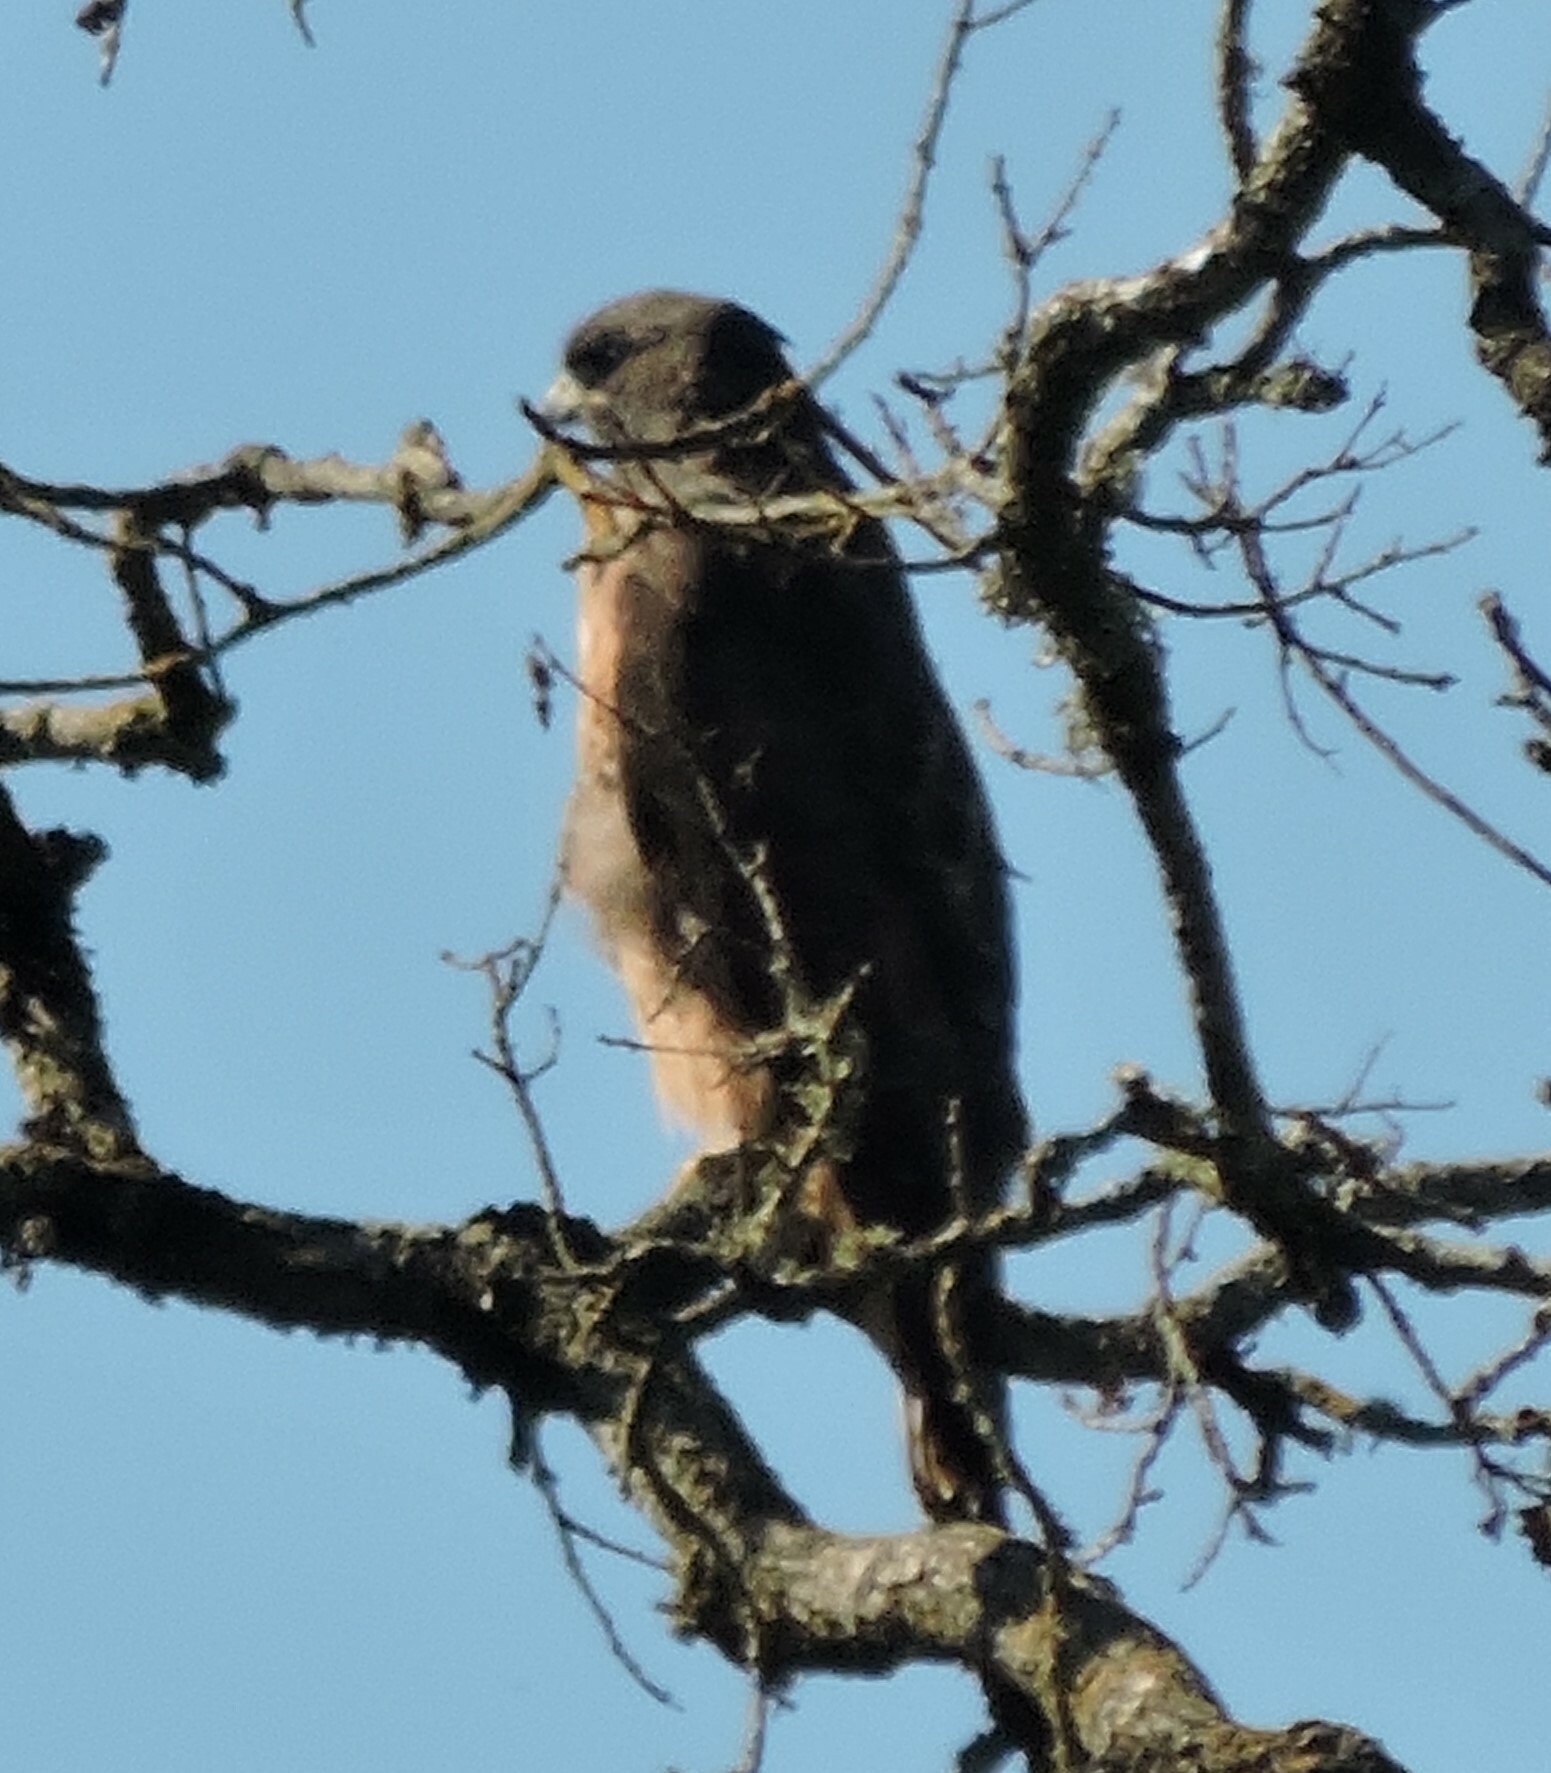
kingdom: Animalia
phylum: Chordata
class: Aves
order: Accipitriformes
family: Accipitridae
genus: Buteo
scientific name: Buteo swainsoni
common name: Swainson's hawk
